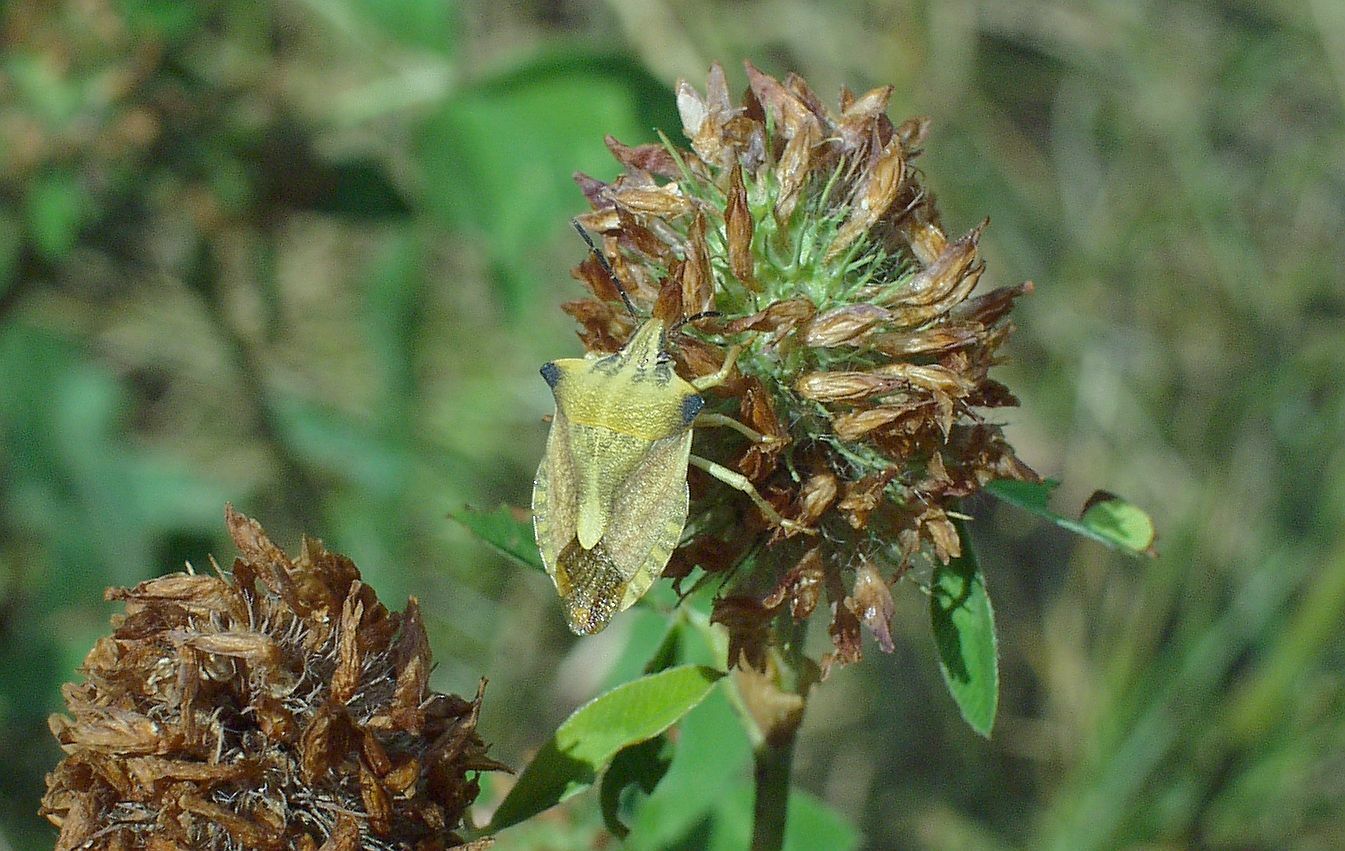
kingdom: Animalia
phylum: Arthropoda
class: Insecta
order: Hemiptera
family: Pentatomidae
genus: Carpocoris
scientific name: Carpocoris fuscispinus
